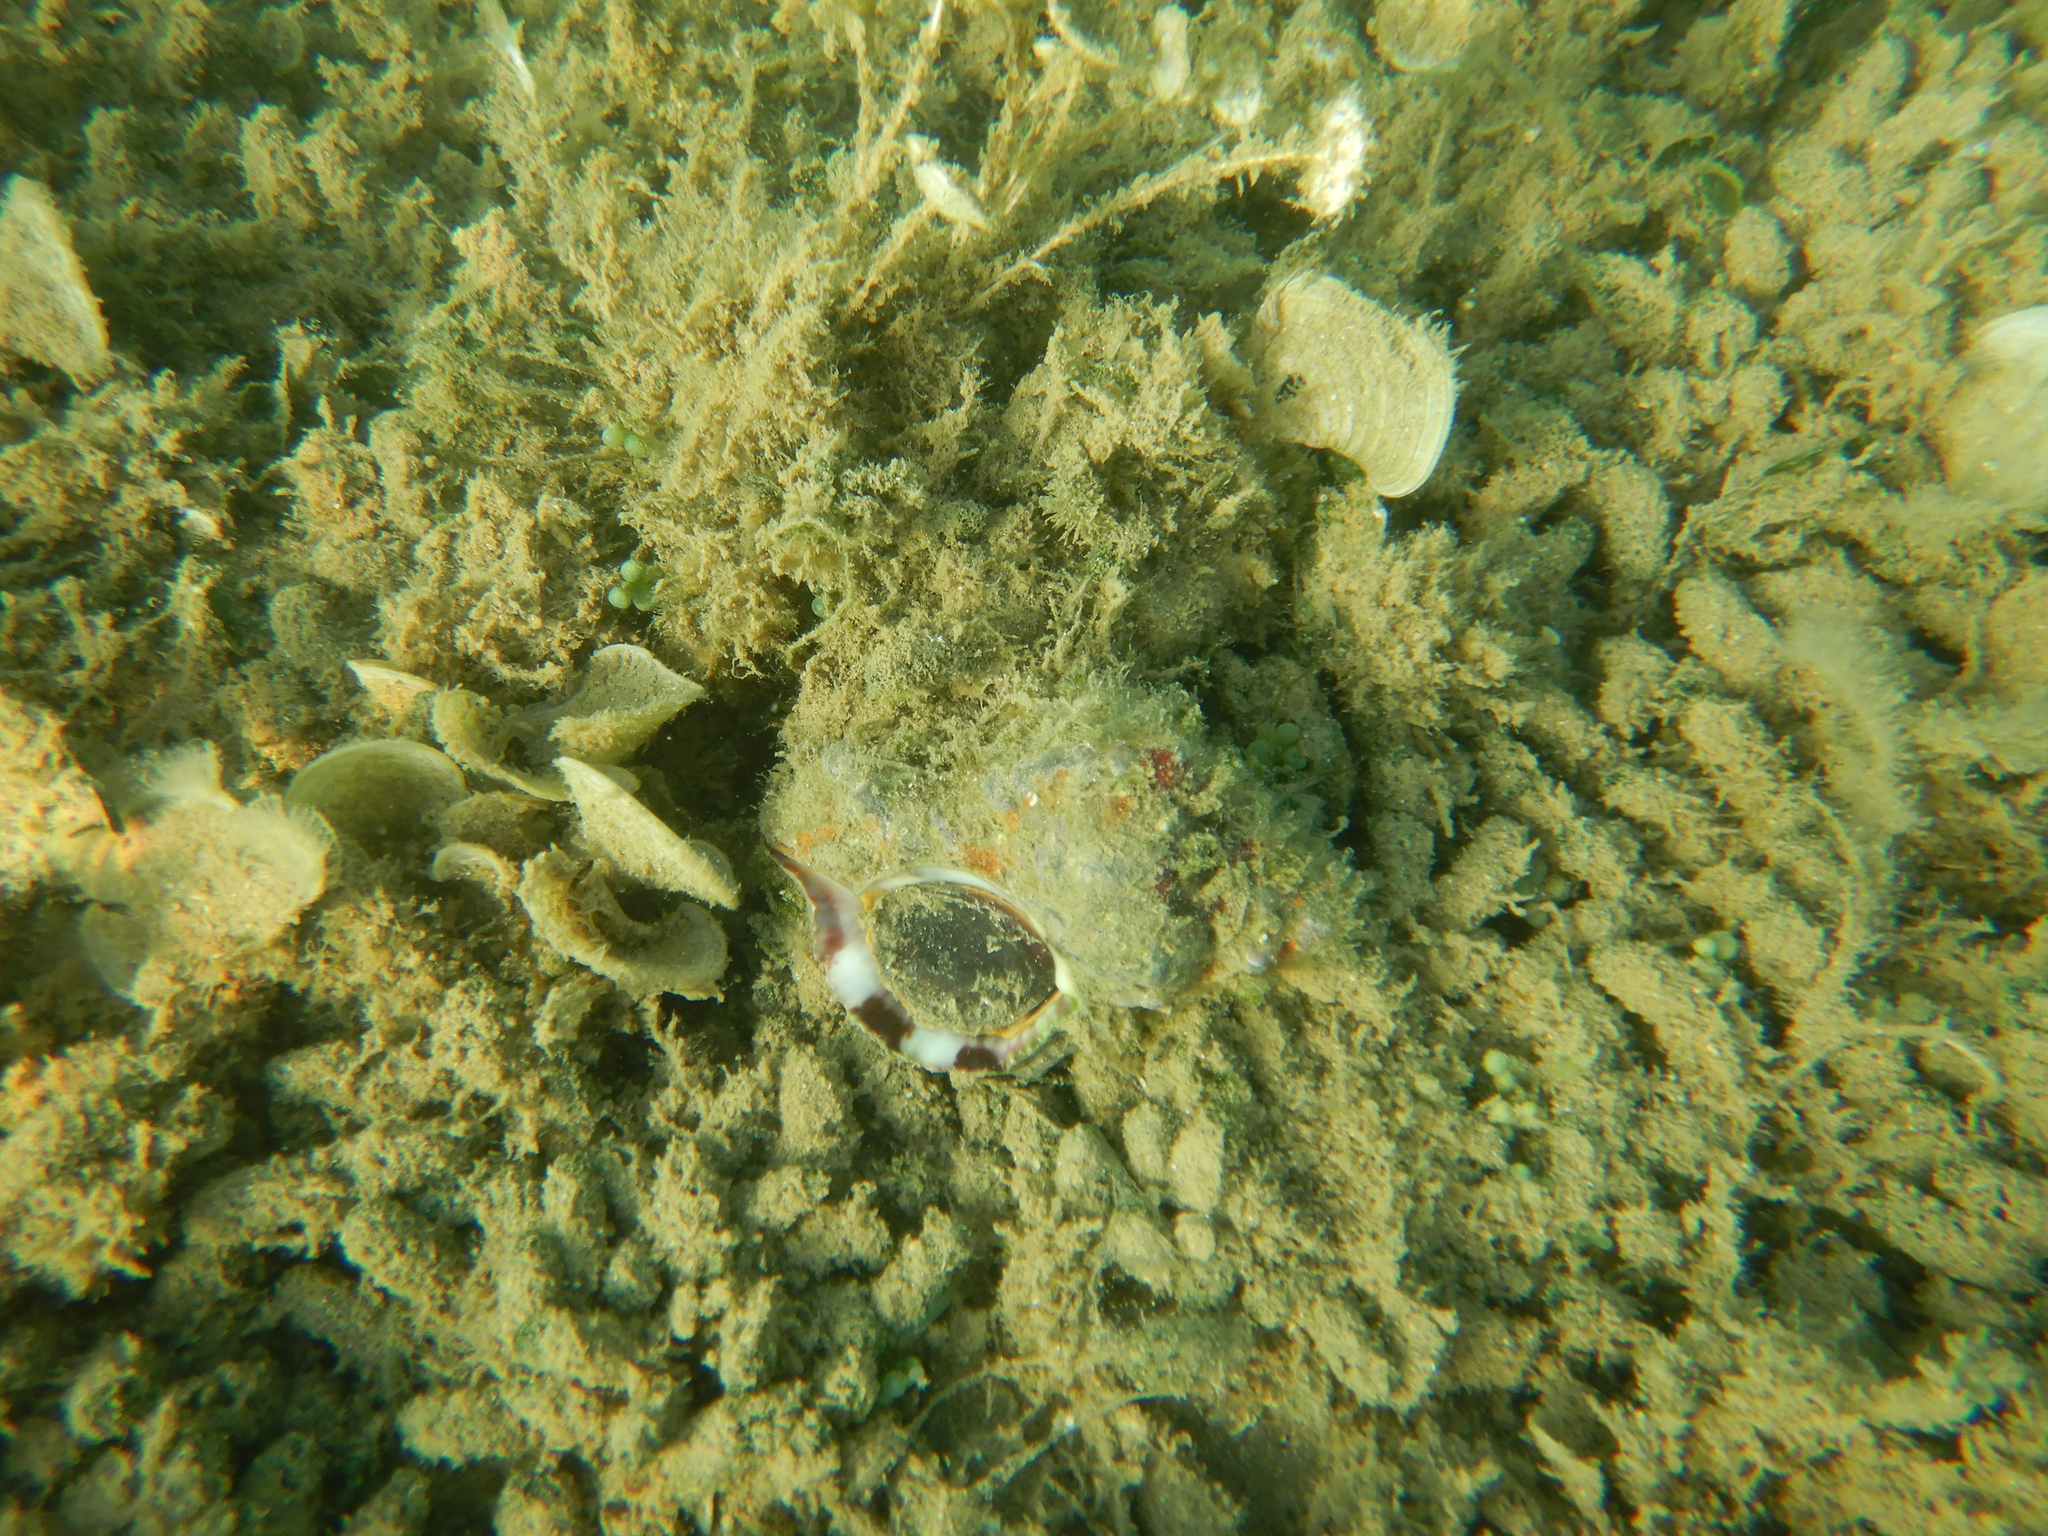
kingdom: Animalia
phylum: Mollusca
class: Gastropoda
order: Neogastropoda
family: Muricidae
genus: Hexaplex
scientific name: Hexaplex trunculus
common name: Banded dye-murex
